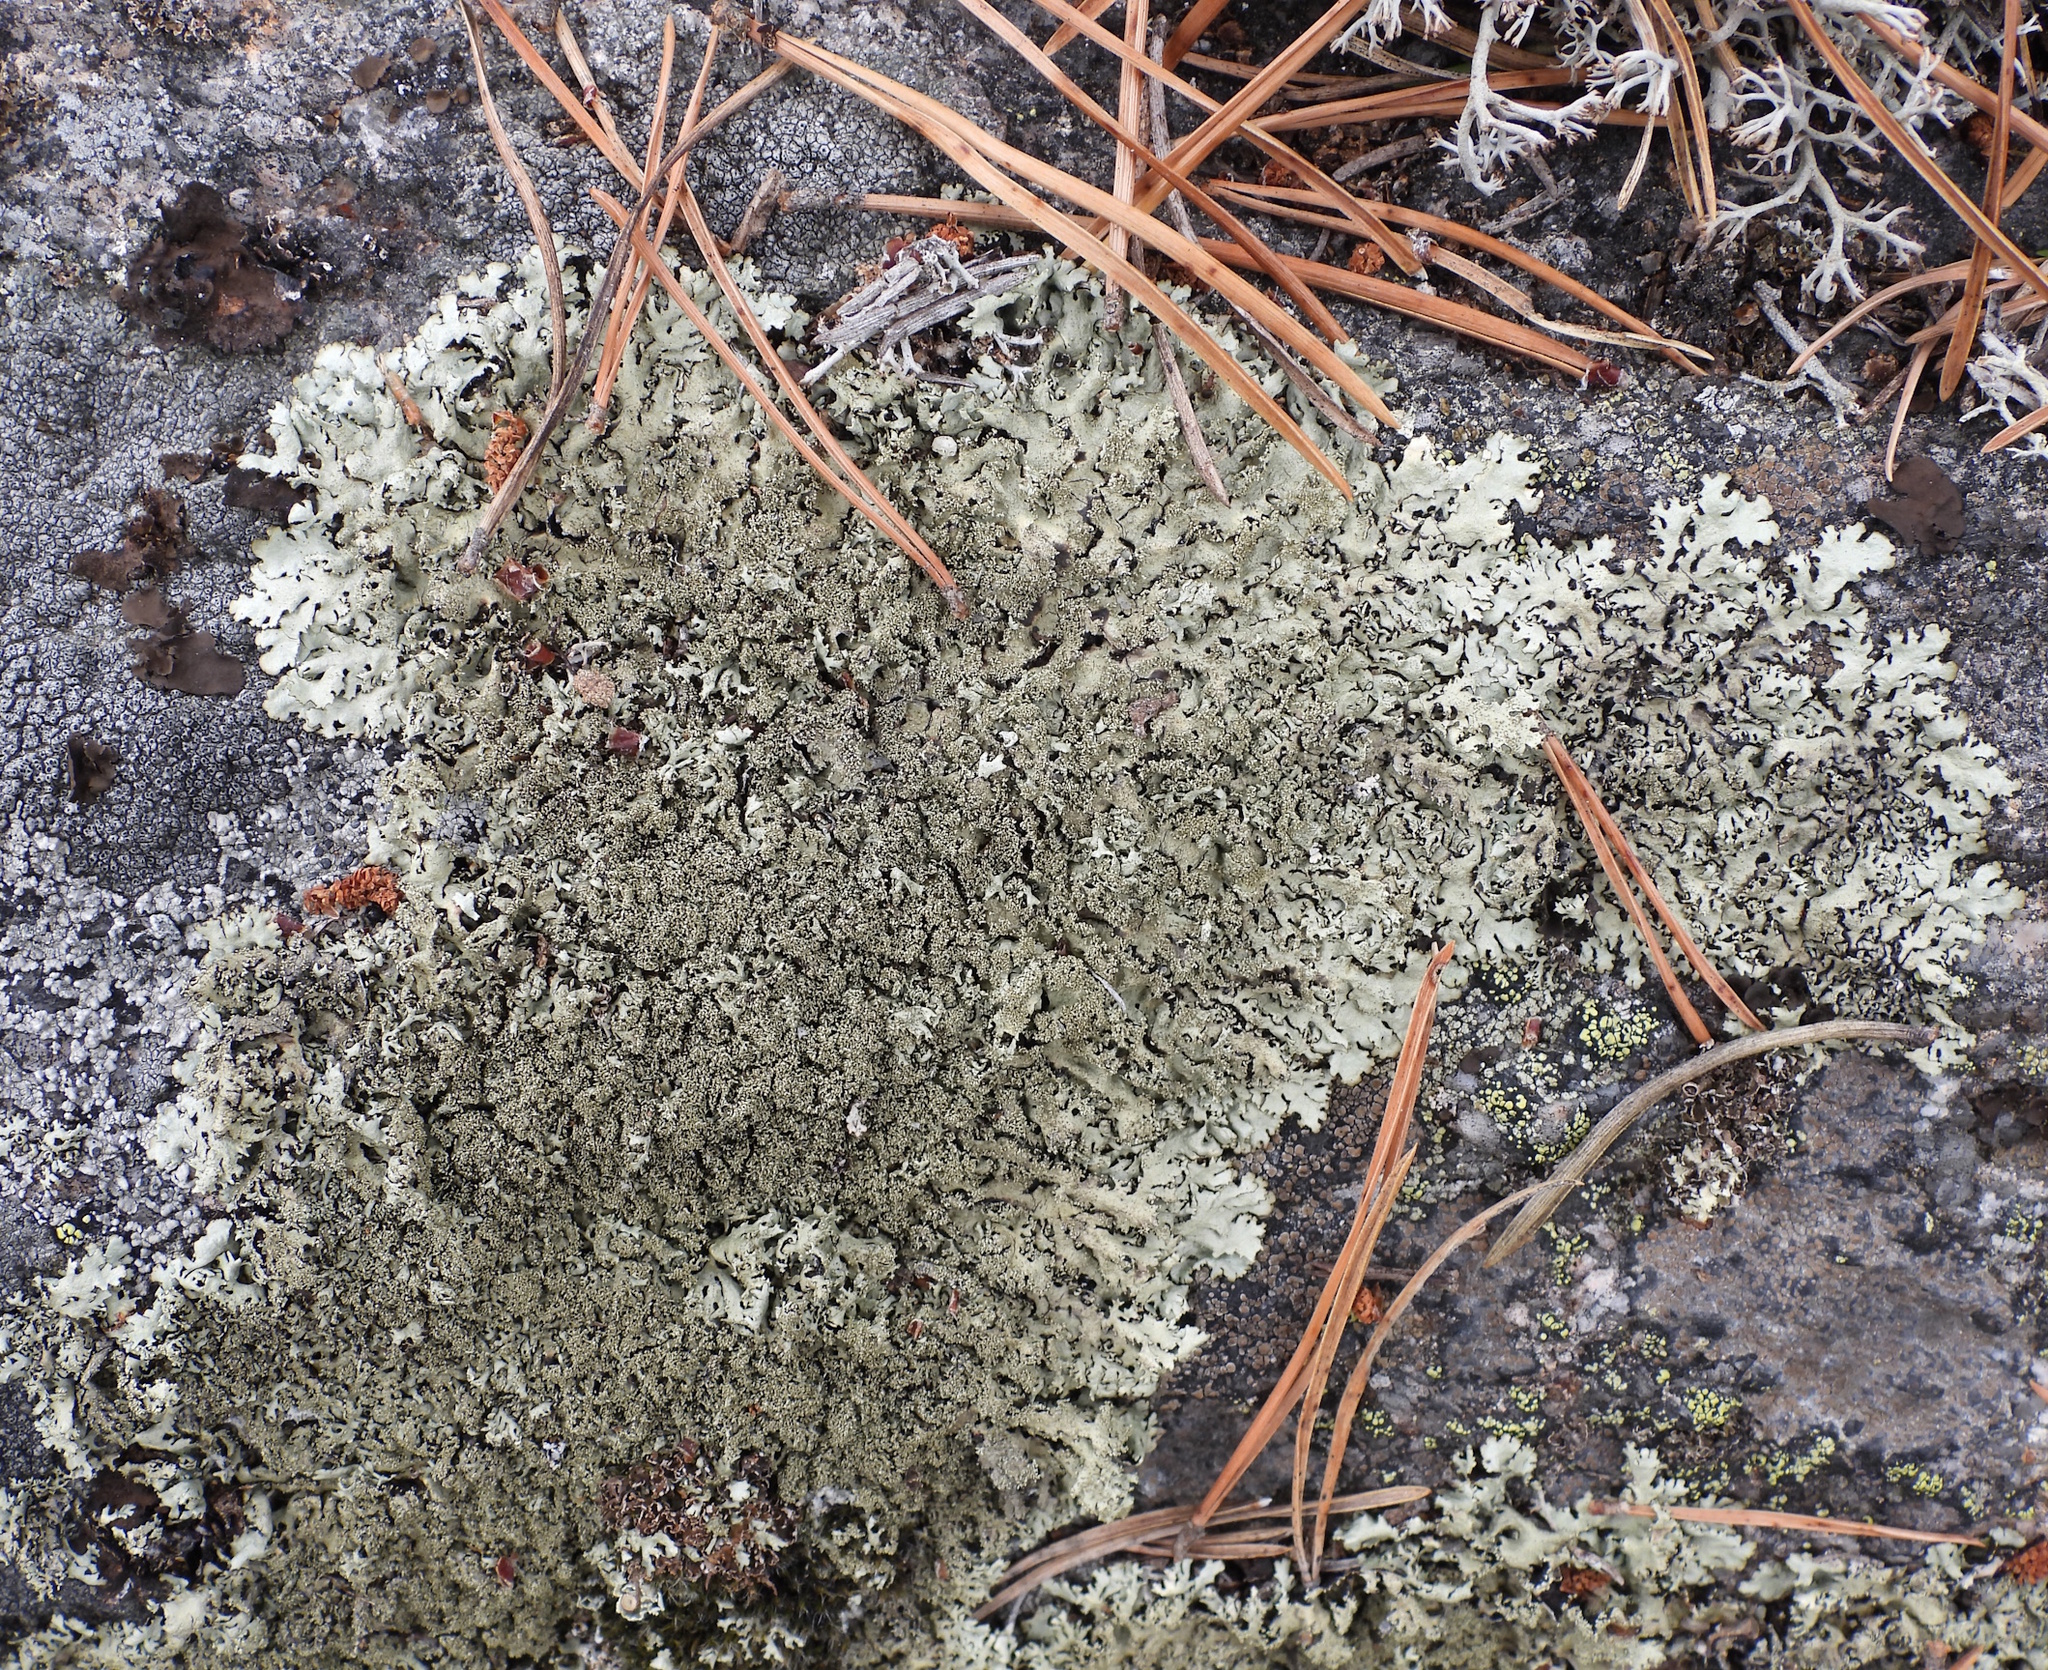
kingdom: Fungi
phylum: Ascomycota
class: Lecanoromycetes
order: Lecanorales
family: Parmeliaceae
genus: Xanthoparmelia
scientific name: Xanthoparmelia conspersa
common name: Peppered rock shield
